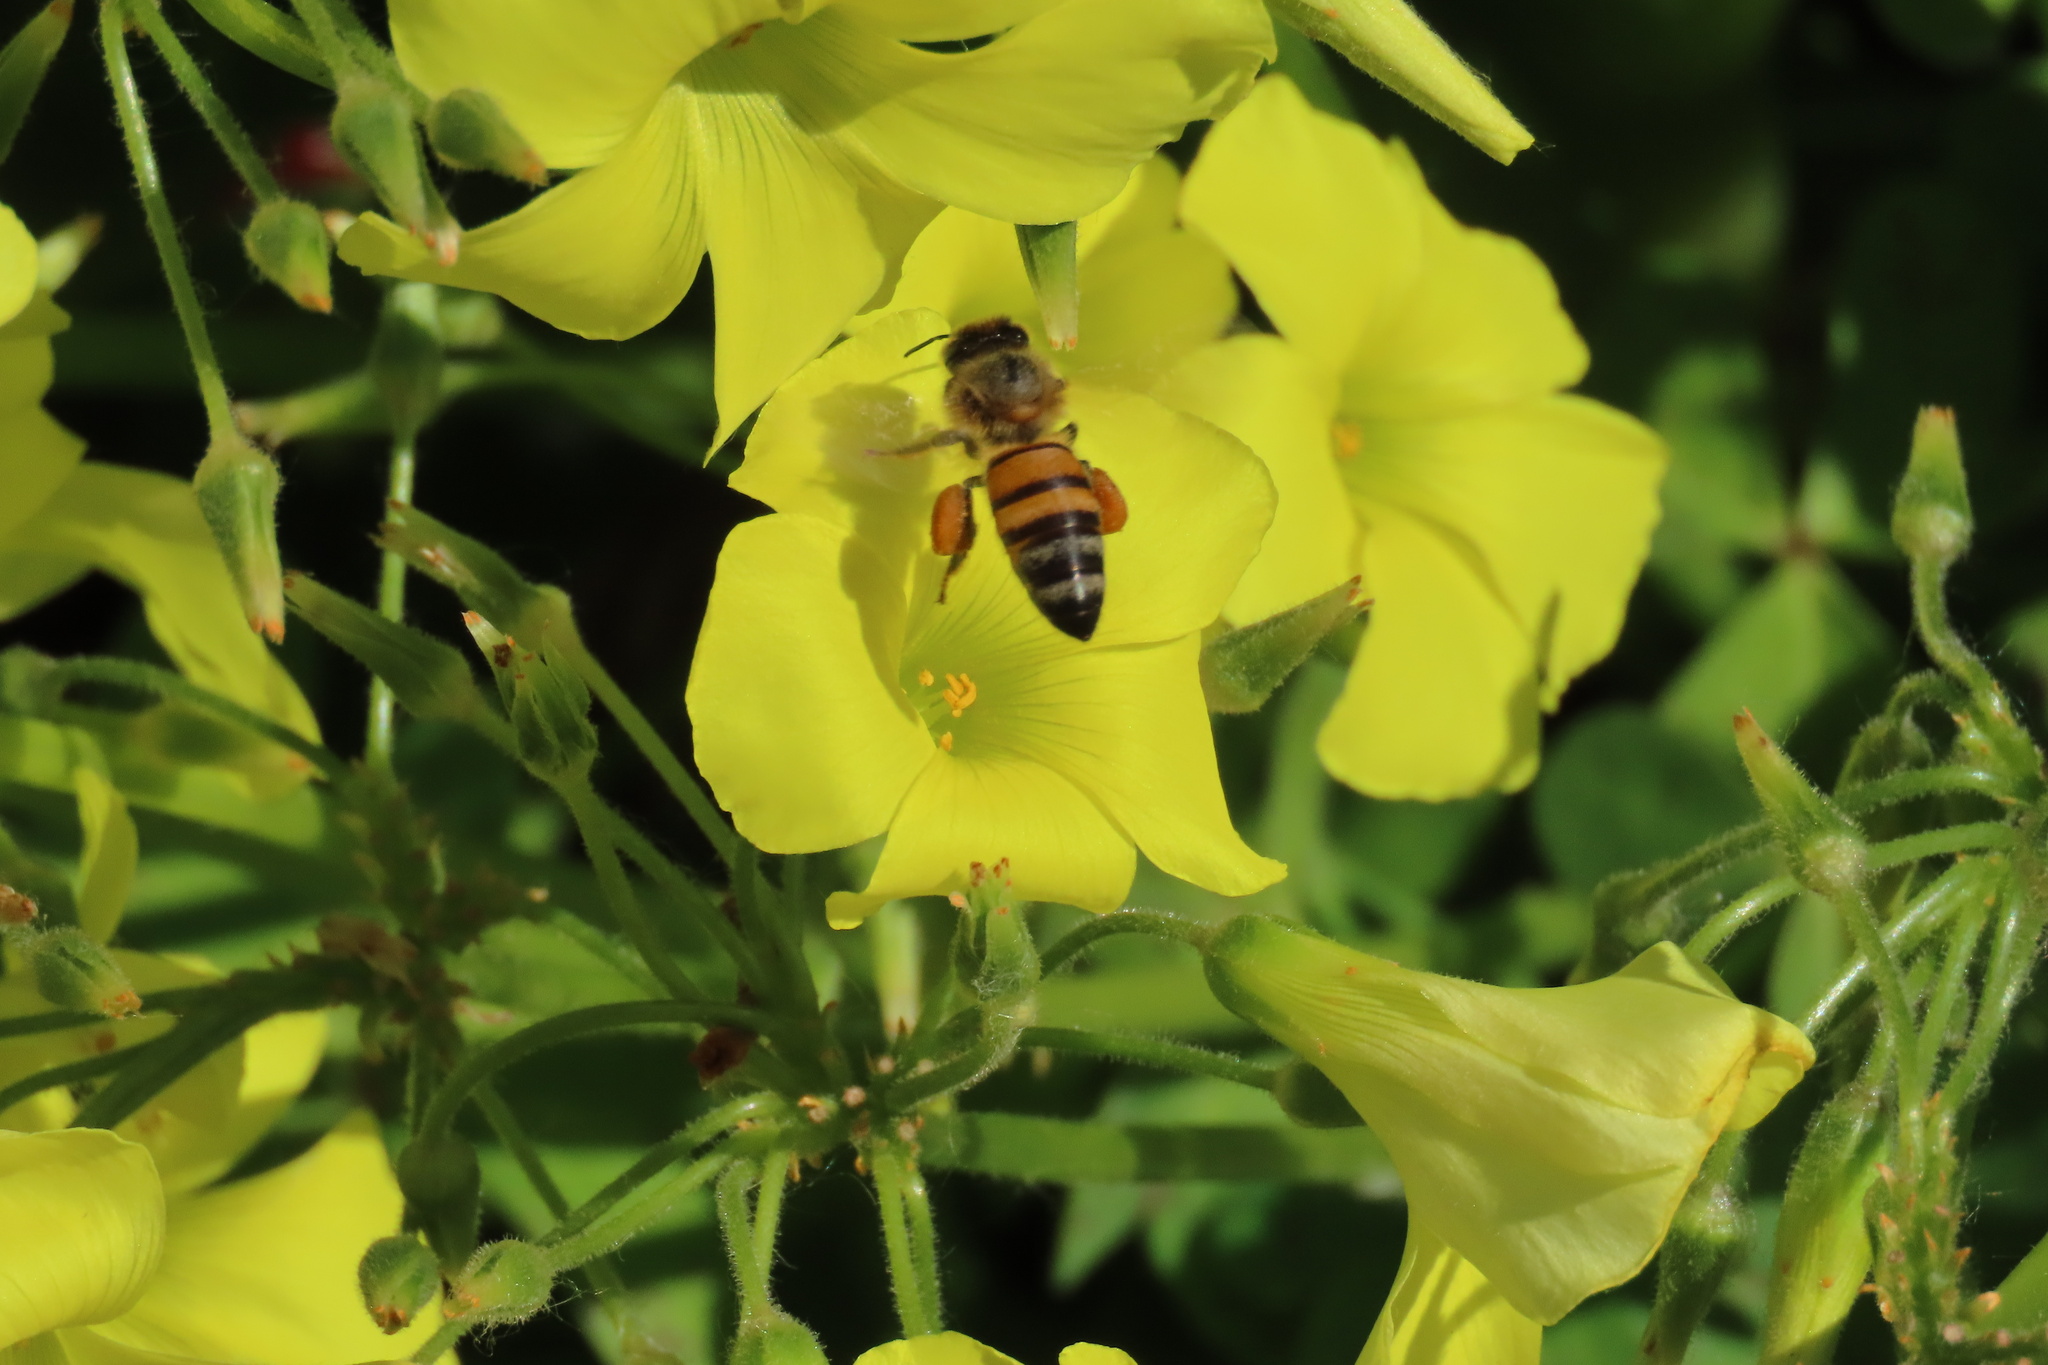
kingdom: Animalia
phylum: Arthropoda
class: Insecta
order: Hymenoptera
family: Apidae
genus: Apis
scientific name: Apis mellifera
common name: Honey bee
